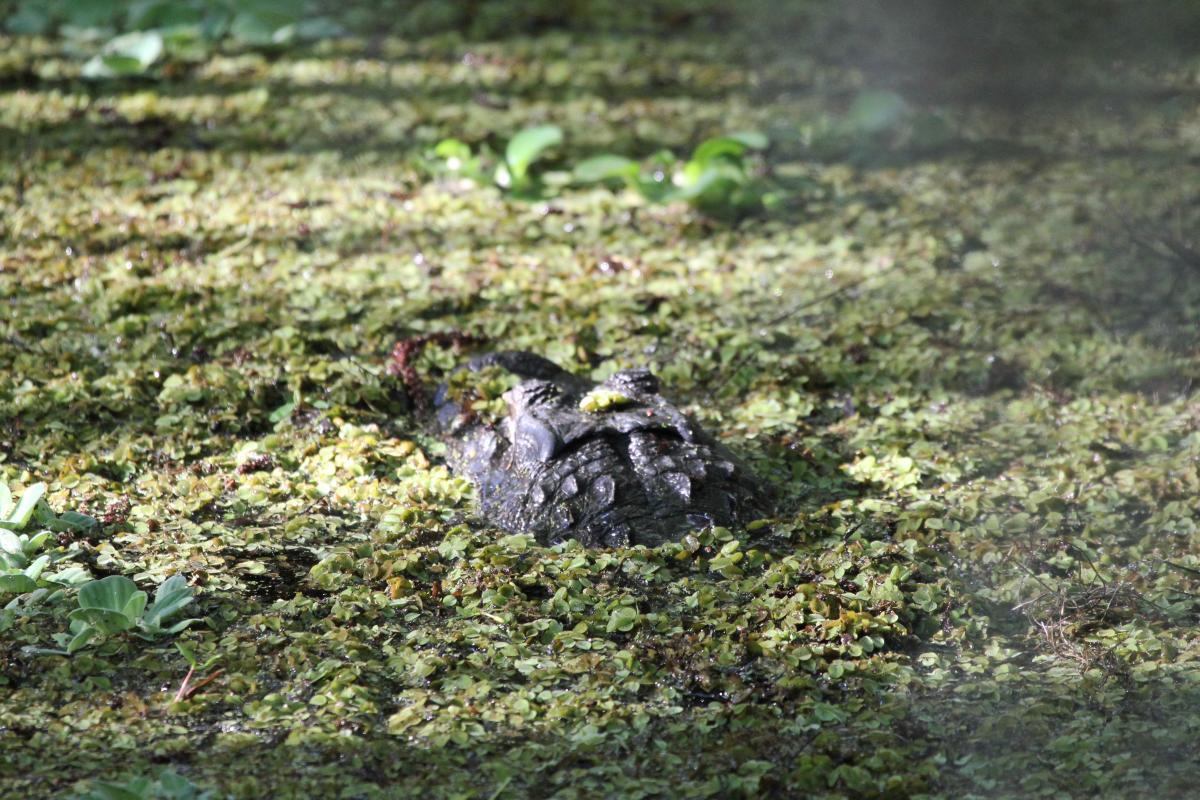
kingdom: Animalia
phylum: Chordata
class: Crocodylia
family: Alligatoridae
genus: Alligator
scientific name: Alligator mississippiensis
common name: American alligator
